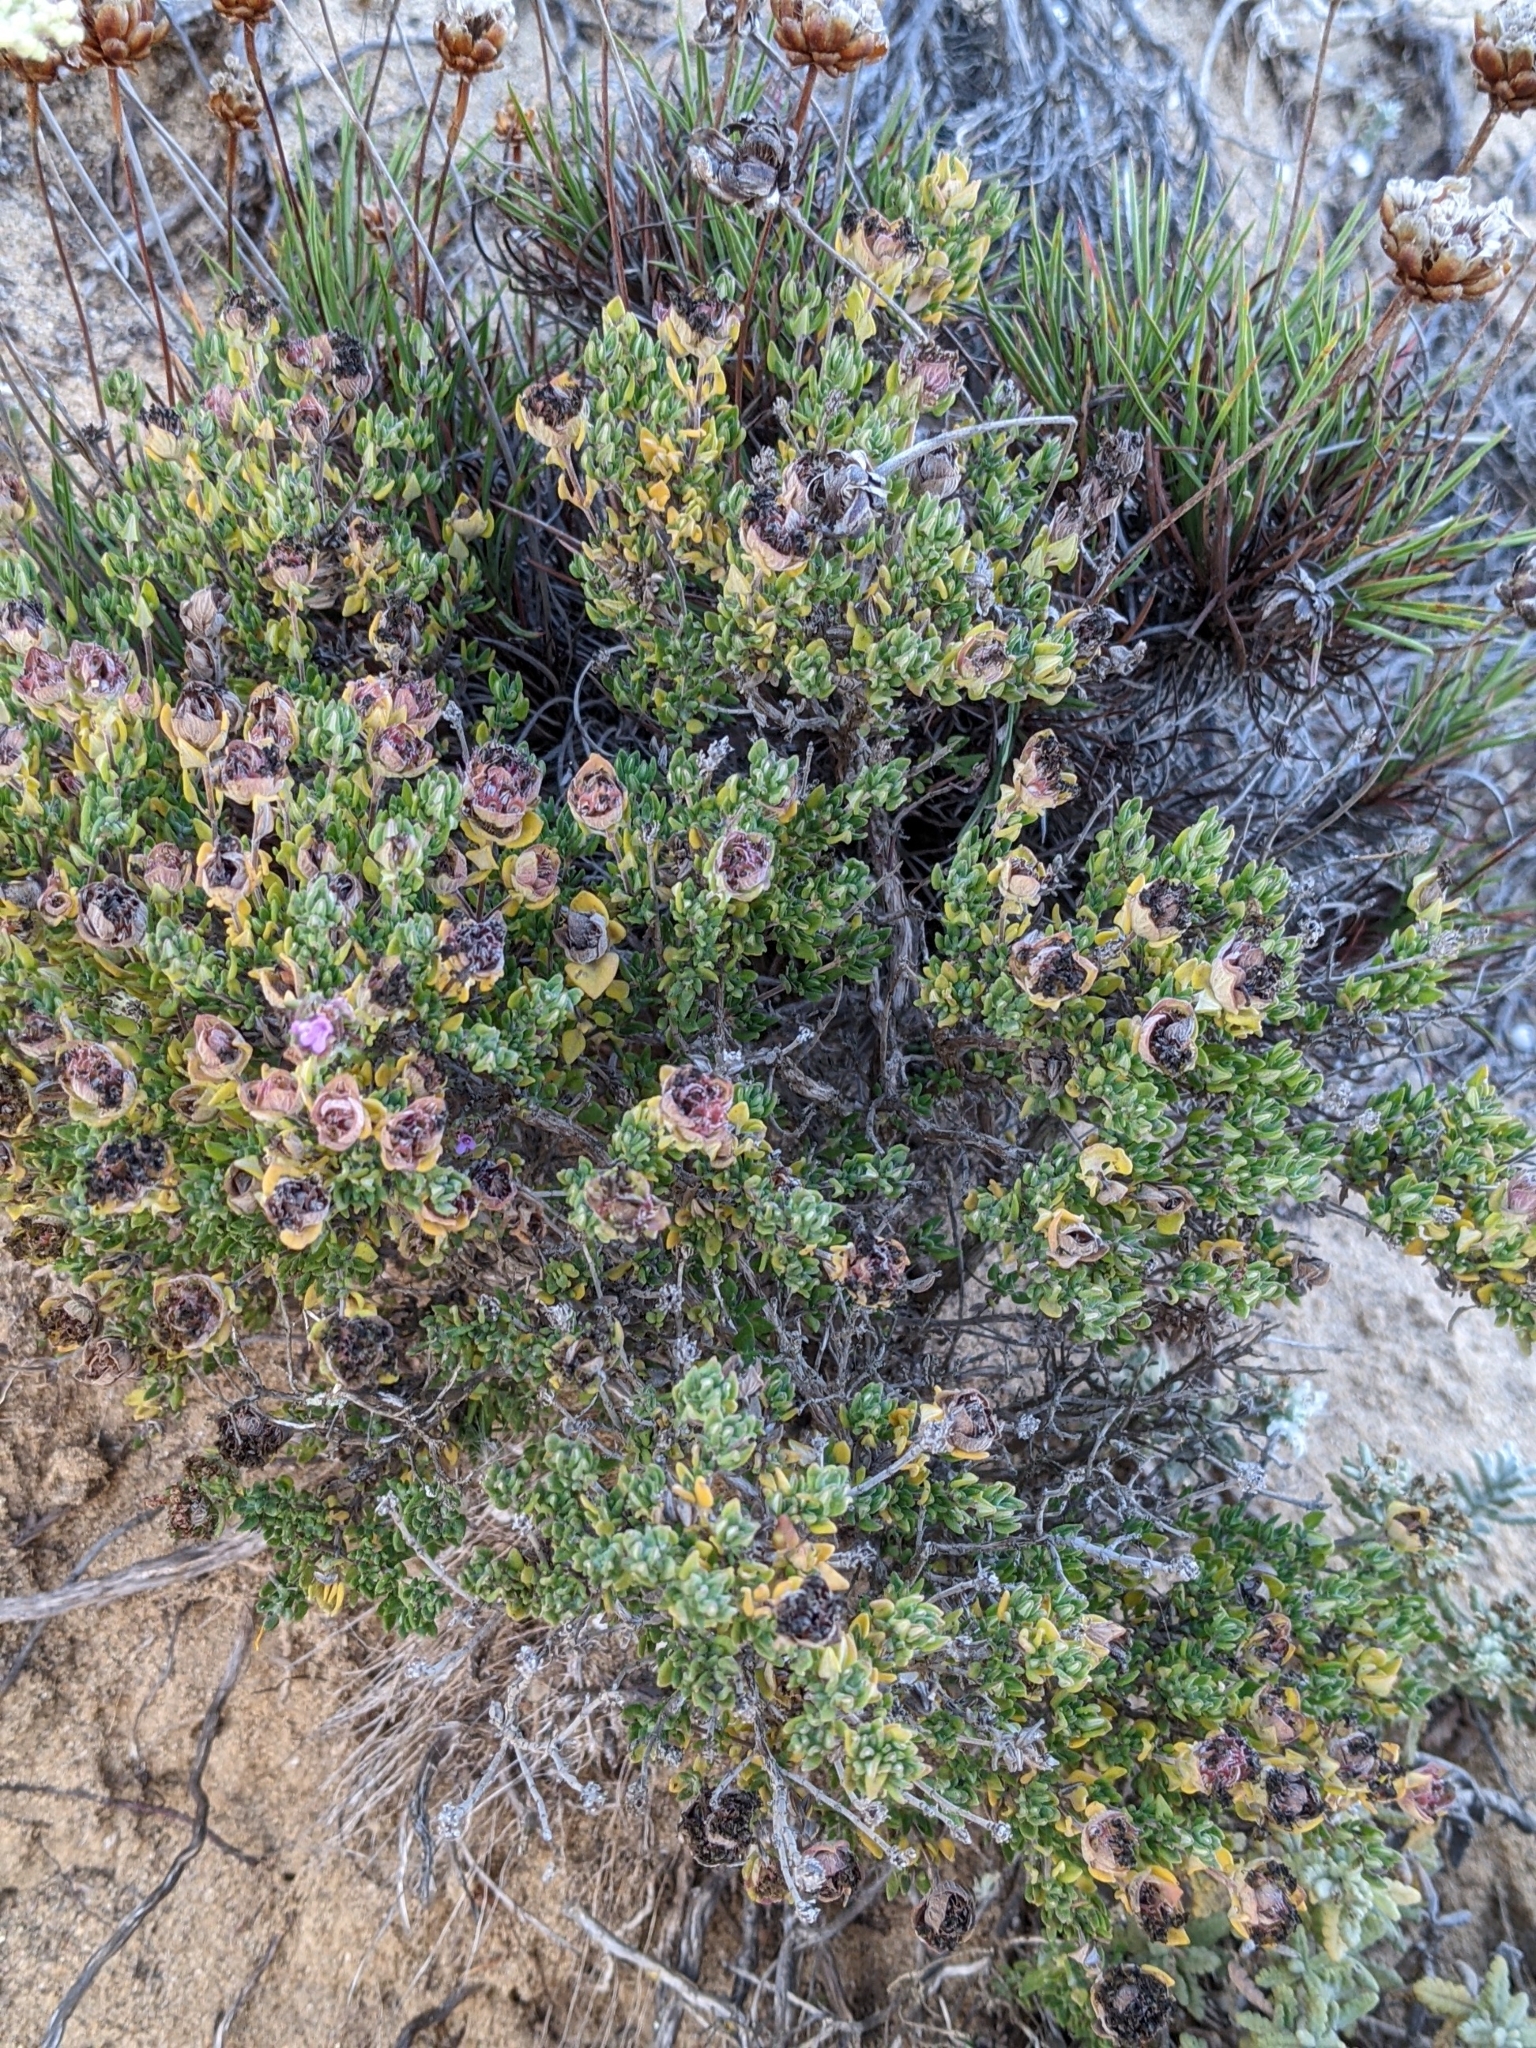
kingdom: Plantae
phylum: Tracheophyta
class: Magnoliopsida
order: Lamiales
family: Lamiaceae
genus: Thymus
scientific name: Thymus camphoratus
